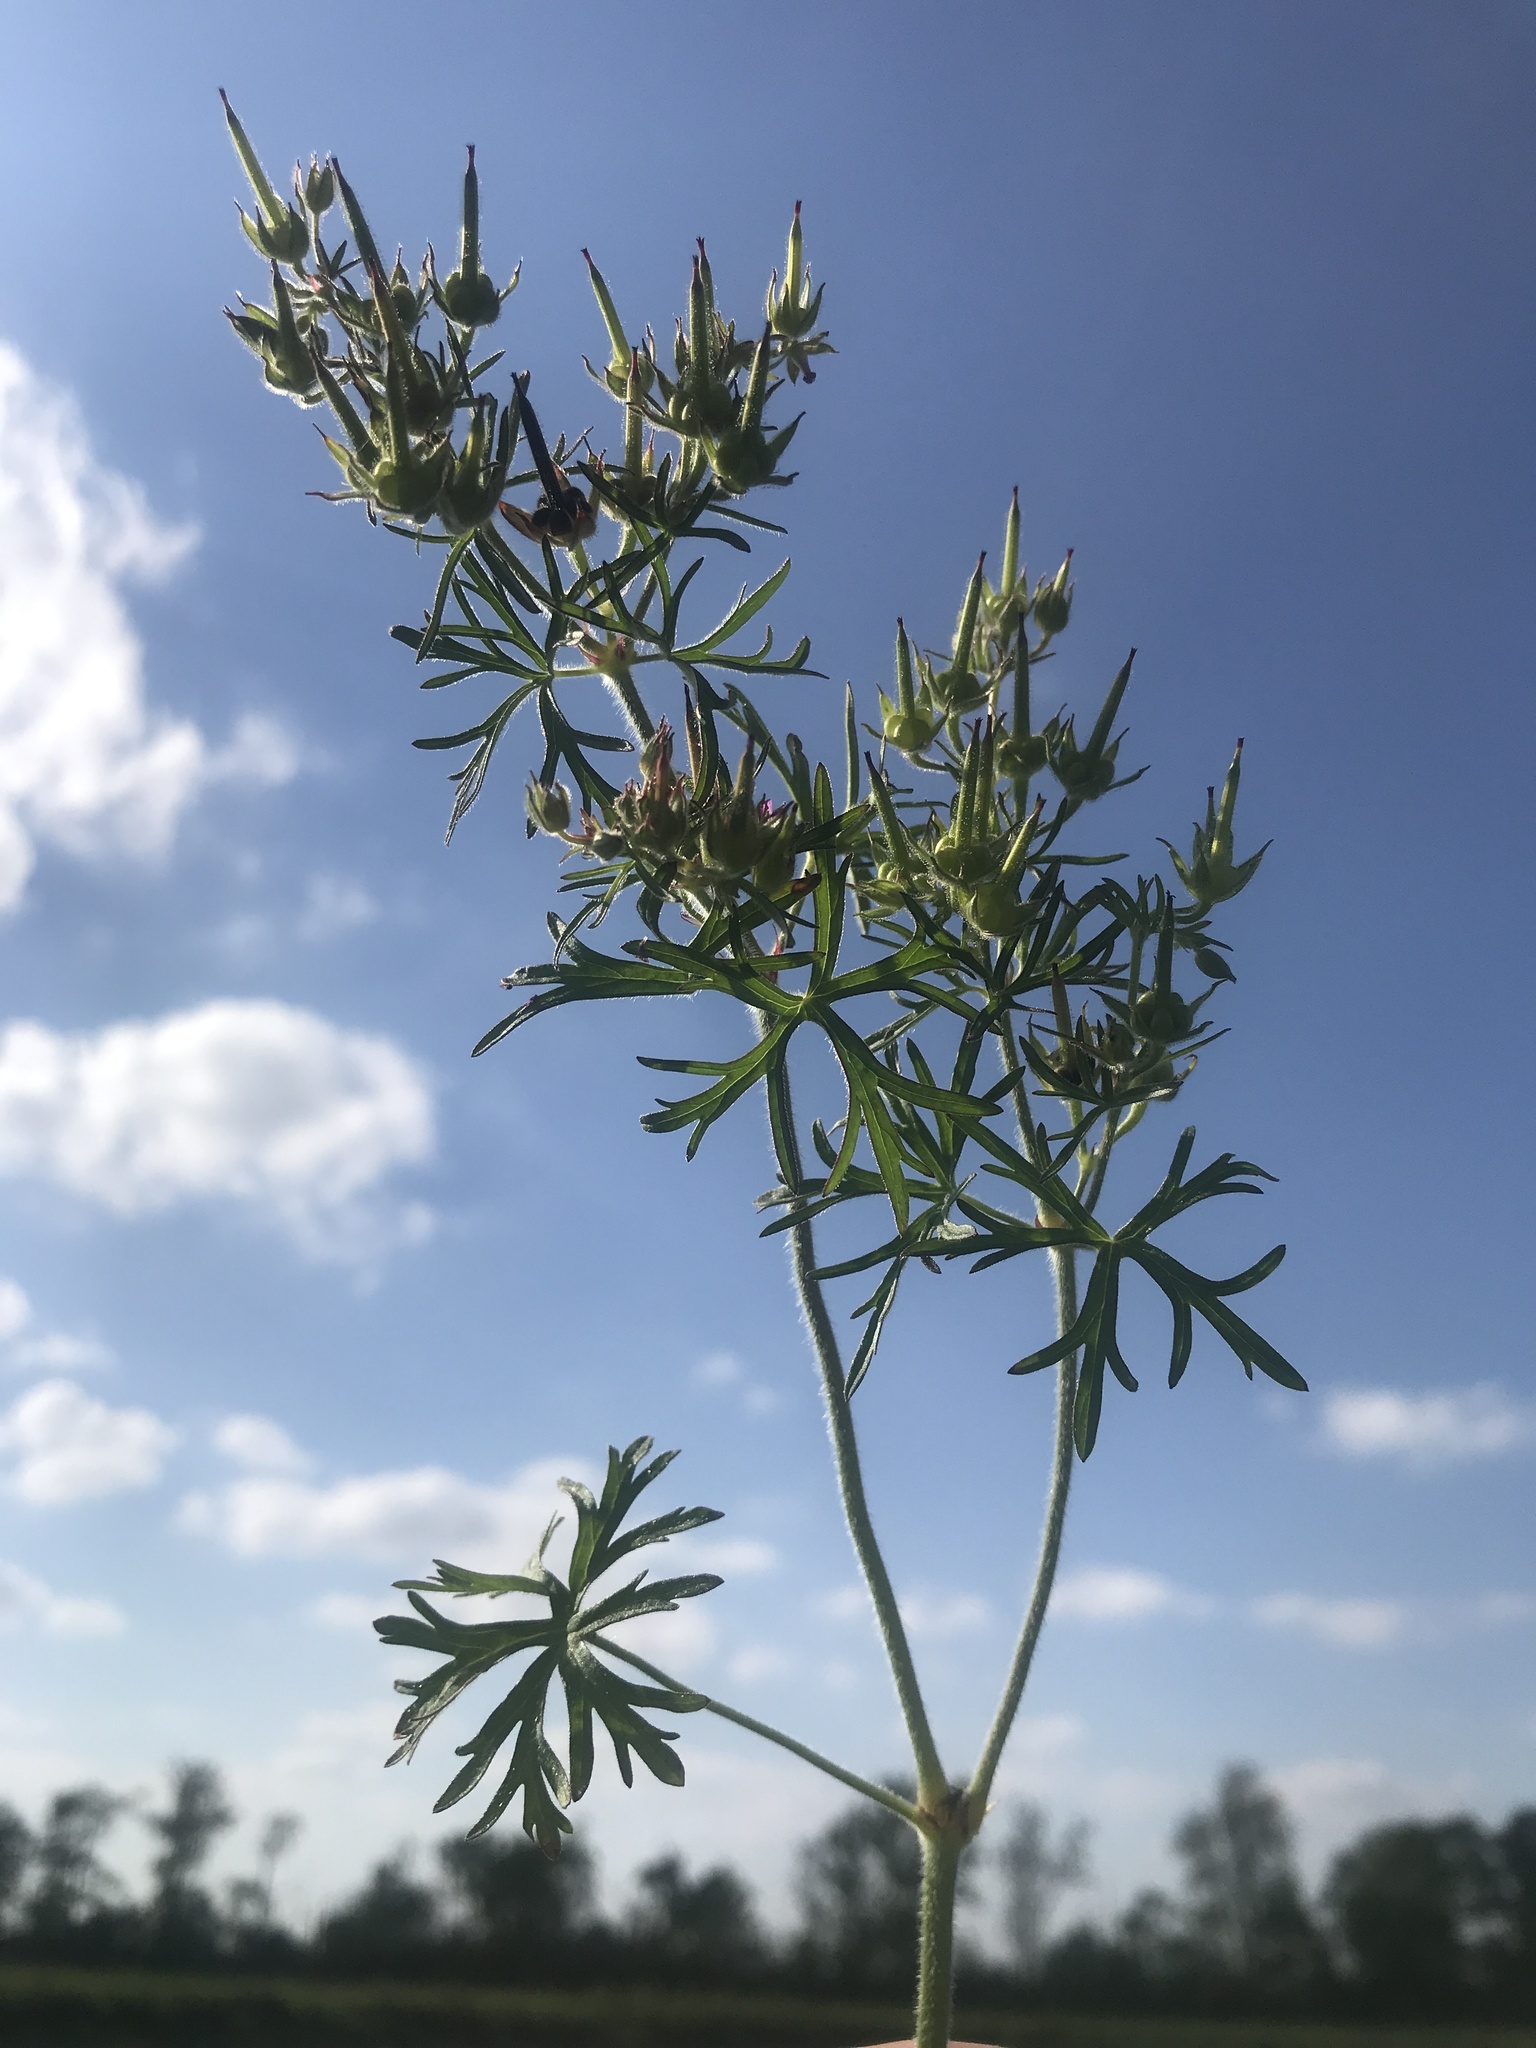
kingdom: Plantae
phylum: Tracheophyta
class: Magnoliopsida
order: Geraniales
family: Geraniaceae
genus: Geranium
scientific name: Geranium dissectum
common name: Cut-leaved crane's-bill
